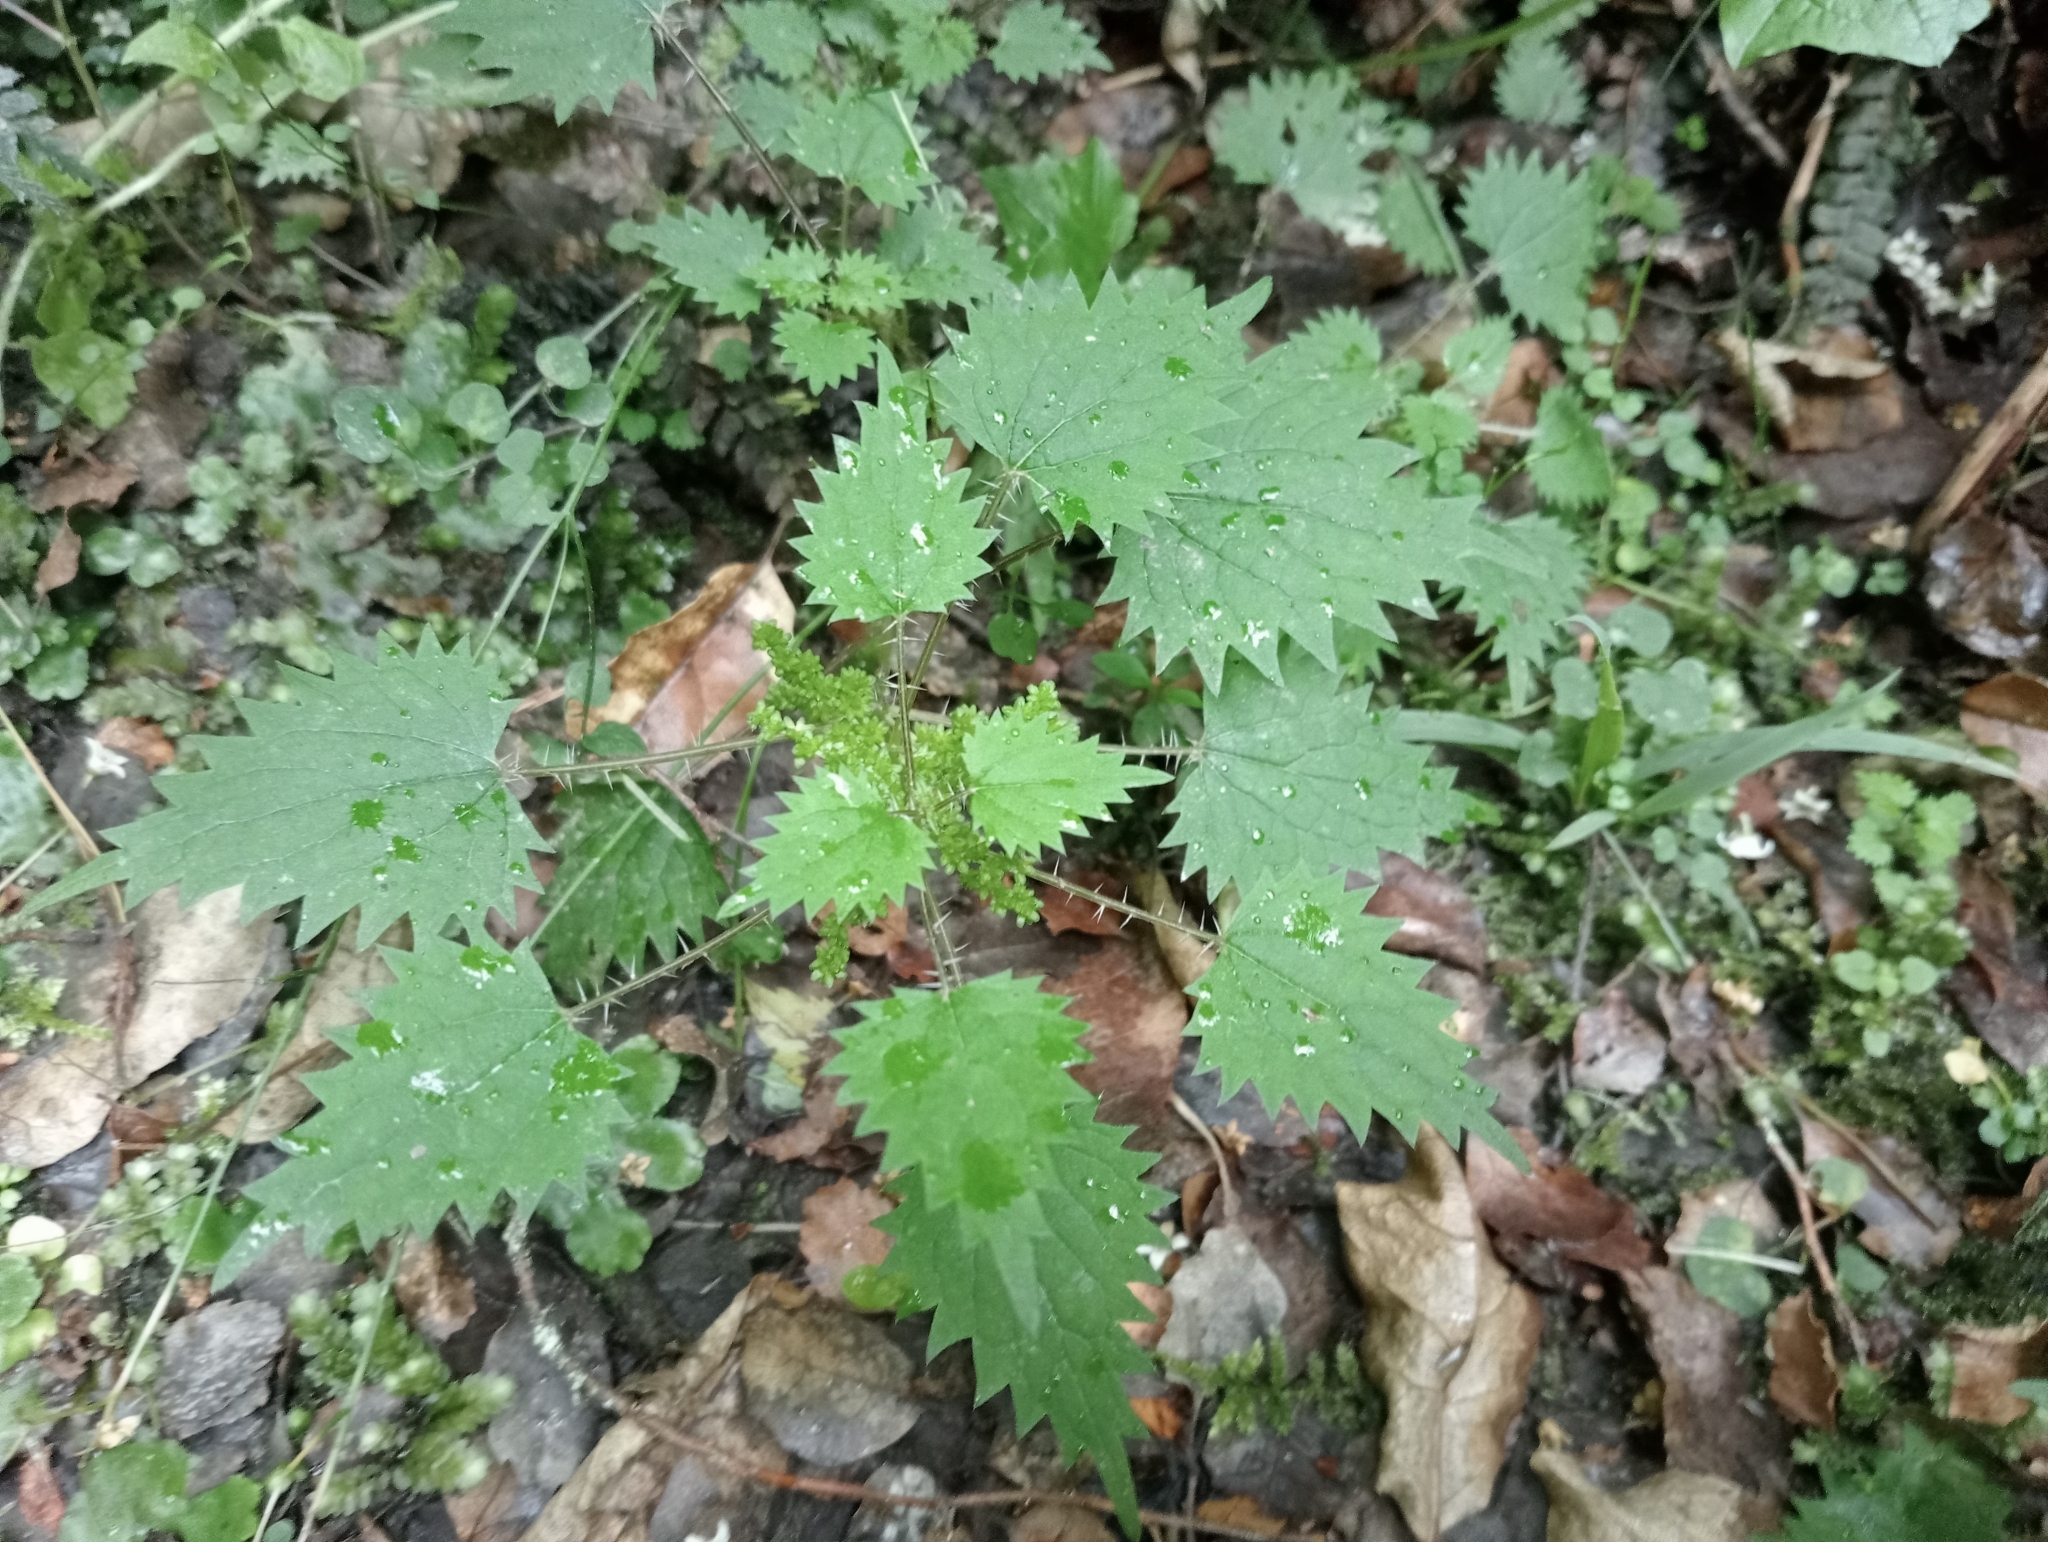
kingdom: Plantae
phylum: Tracheophyta
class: Magnoliopsida
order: Rosales
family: Urticaceae
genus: Urtica
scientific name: Urtica sykesii
